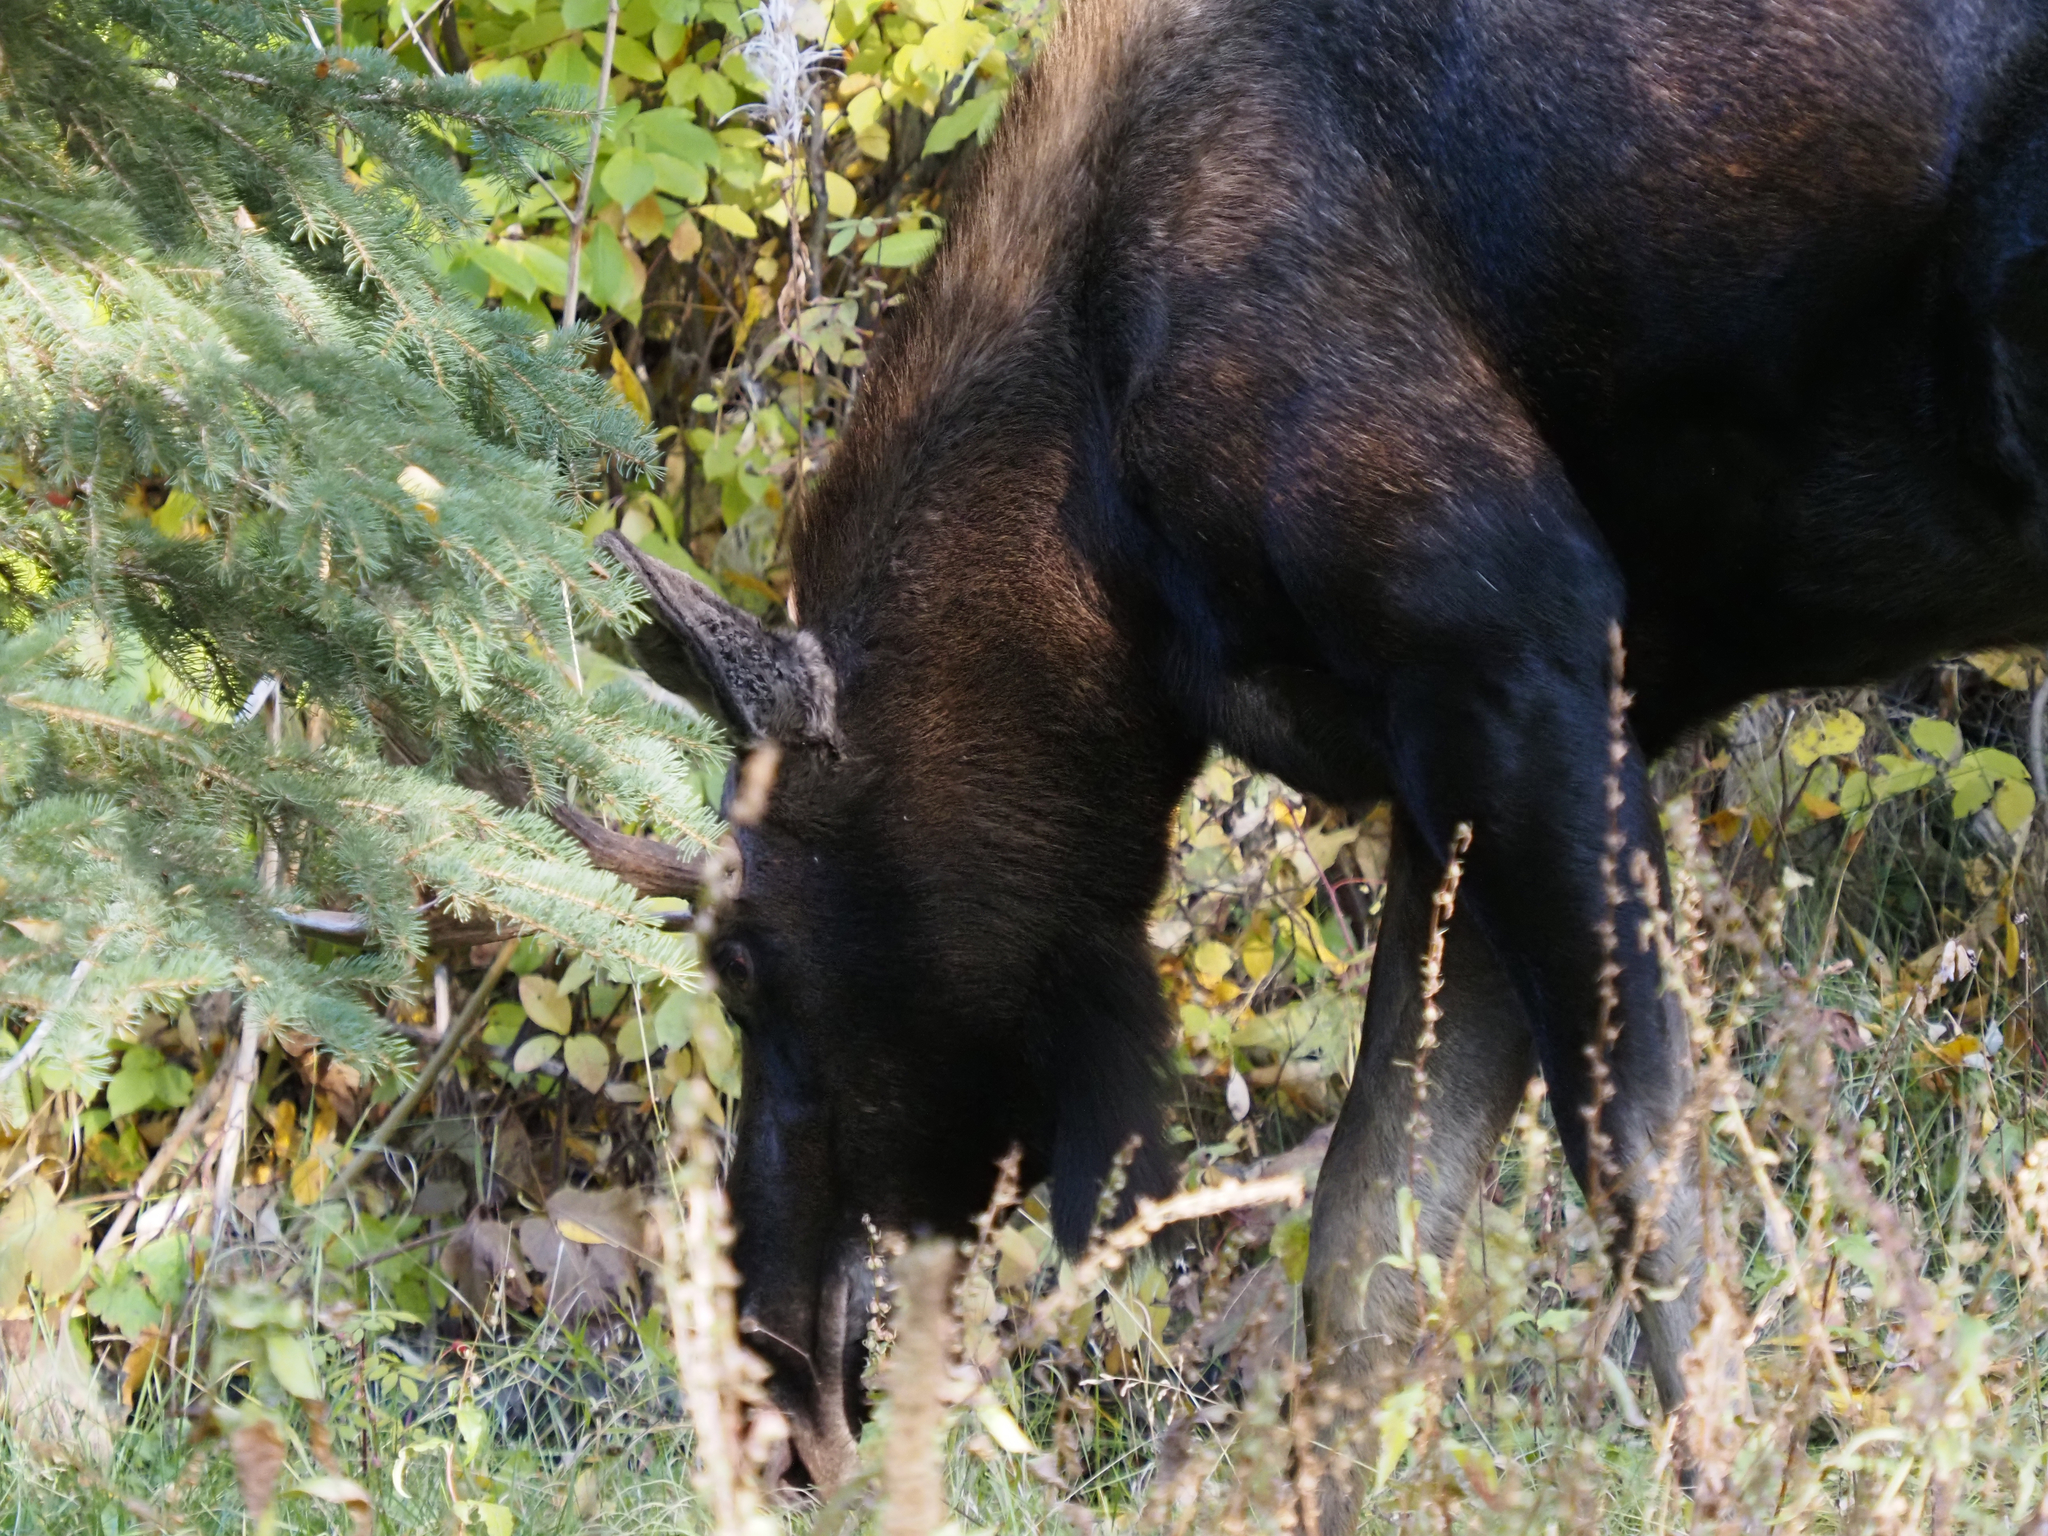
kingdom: Animalia
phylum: Chordata
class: Mammalia
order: Artiodactyla
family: Cervidae
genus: Alces
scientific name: Alces alces
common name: Moose
